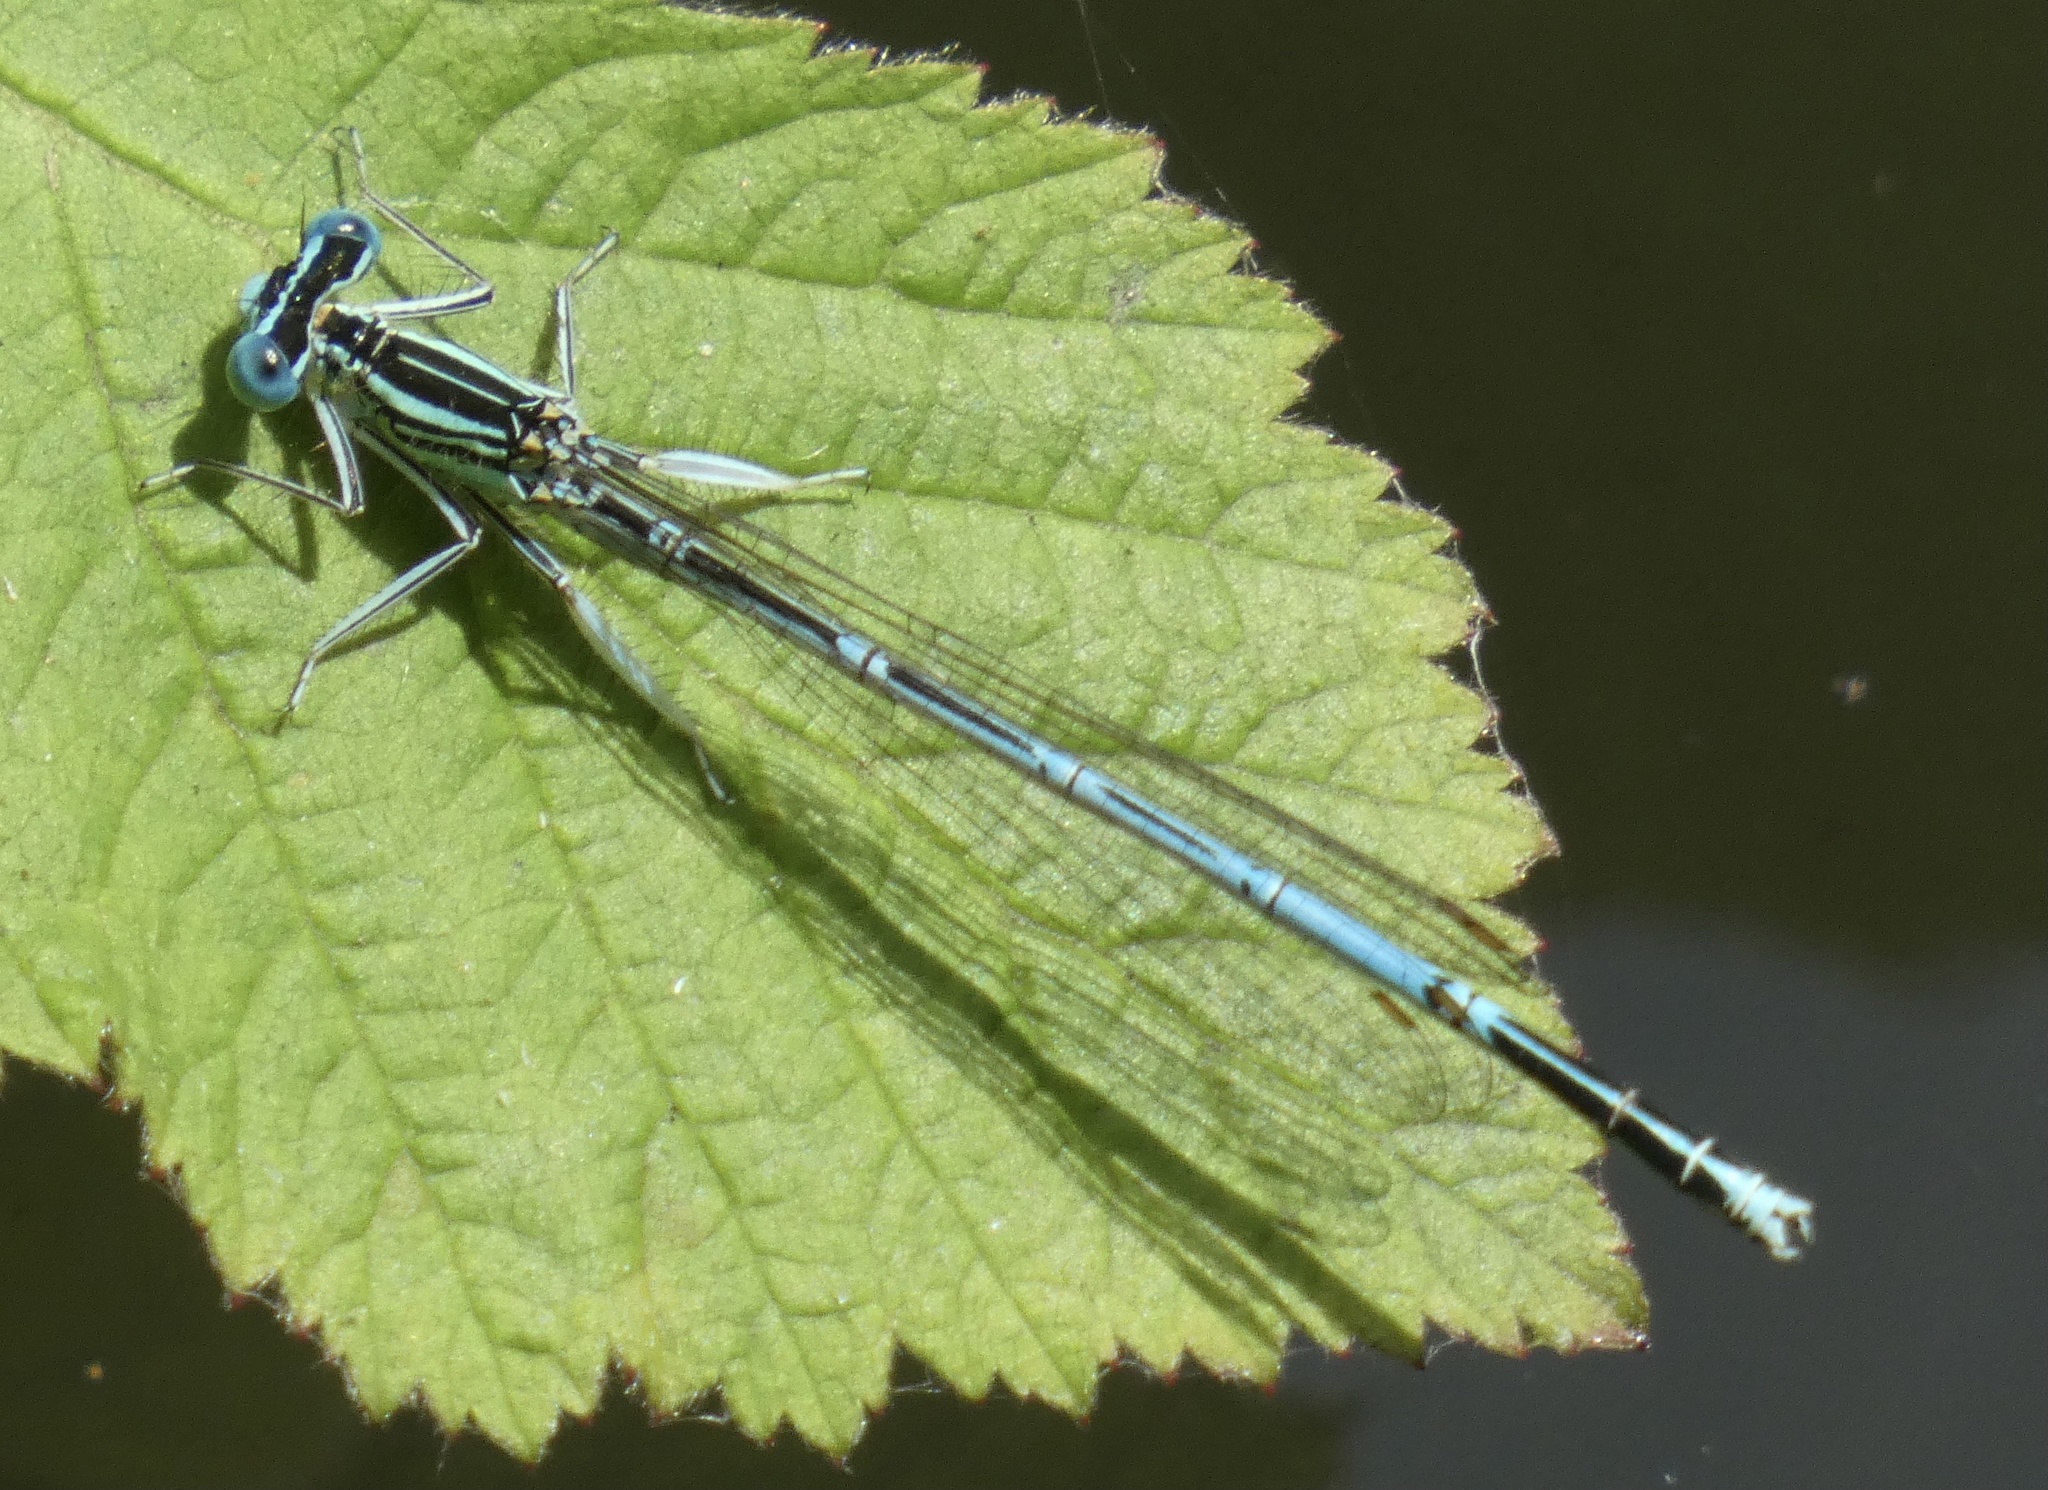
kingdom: Animalia
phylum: Arthropoda
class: Insecta
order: Odonata
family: Platycnemididae
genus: Platycnemis
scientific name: Platycnemis pennipes
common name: White-legged damselfly
